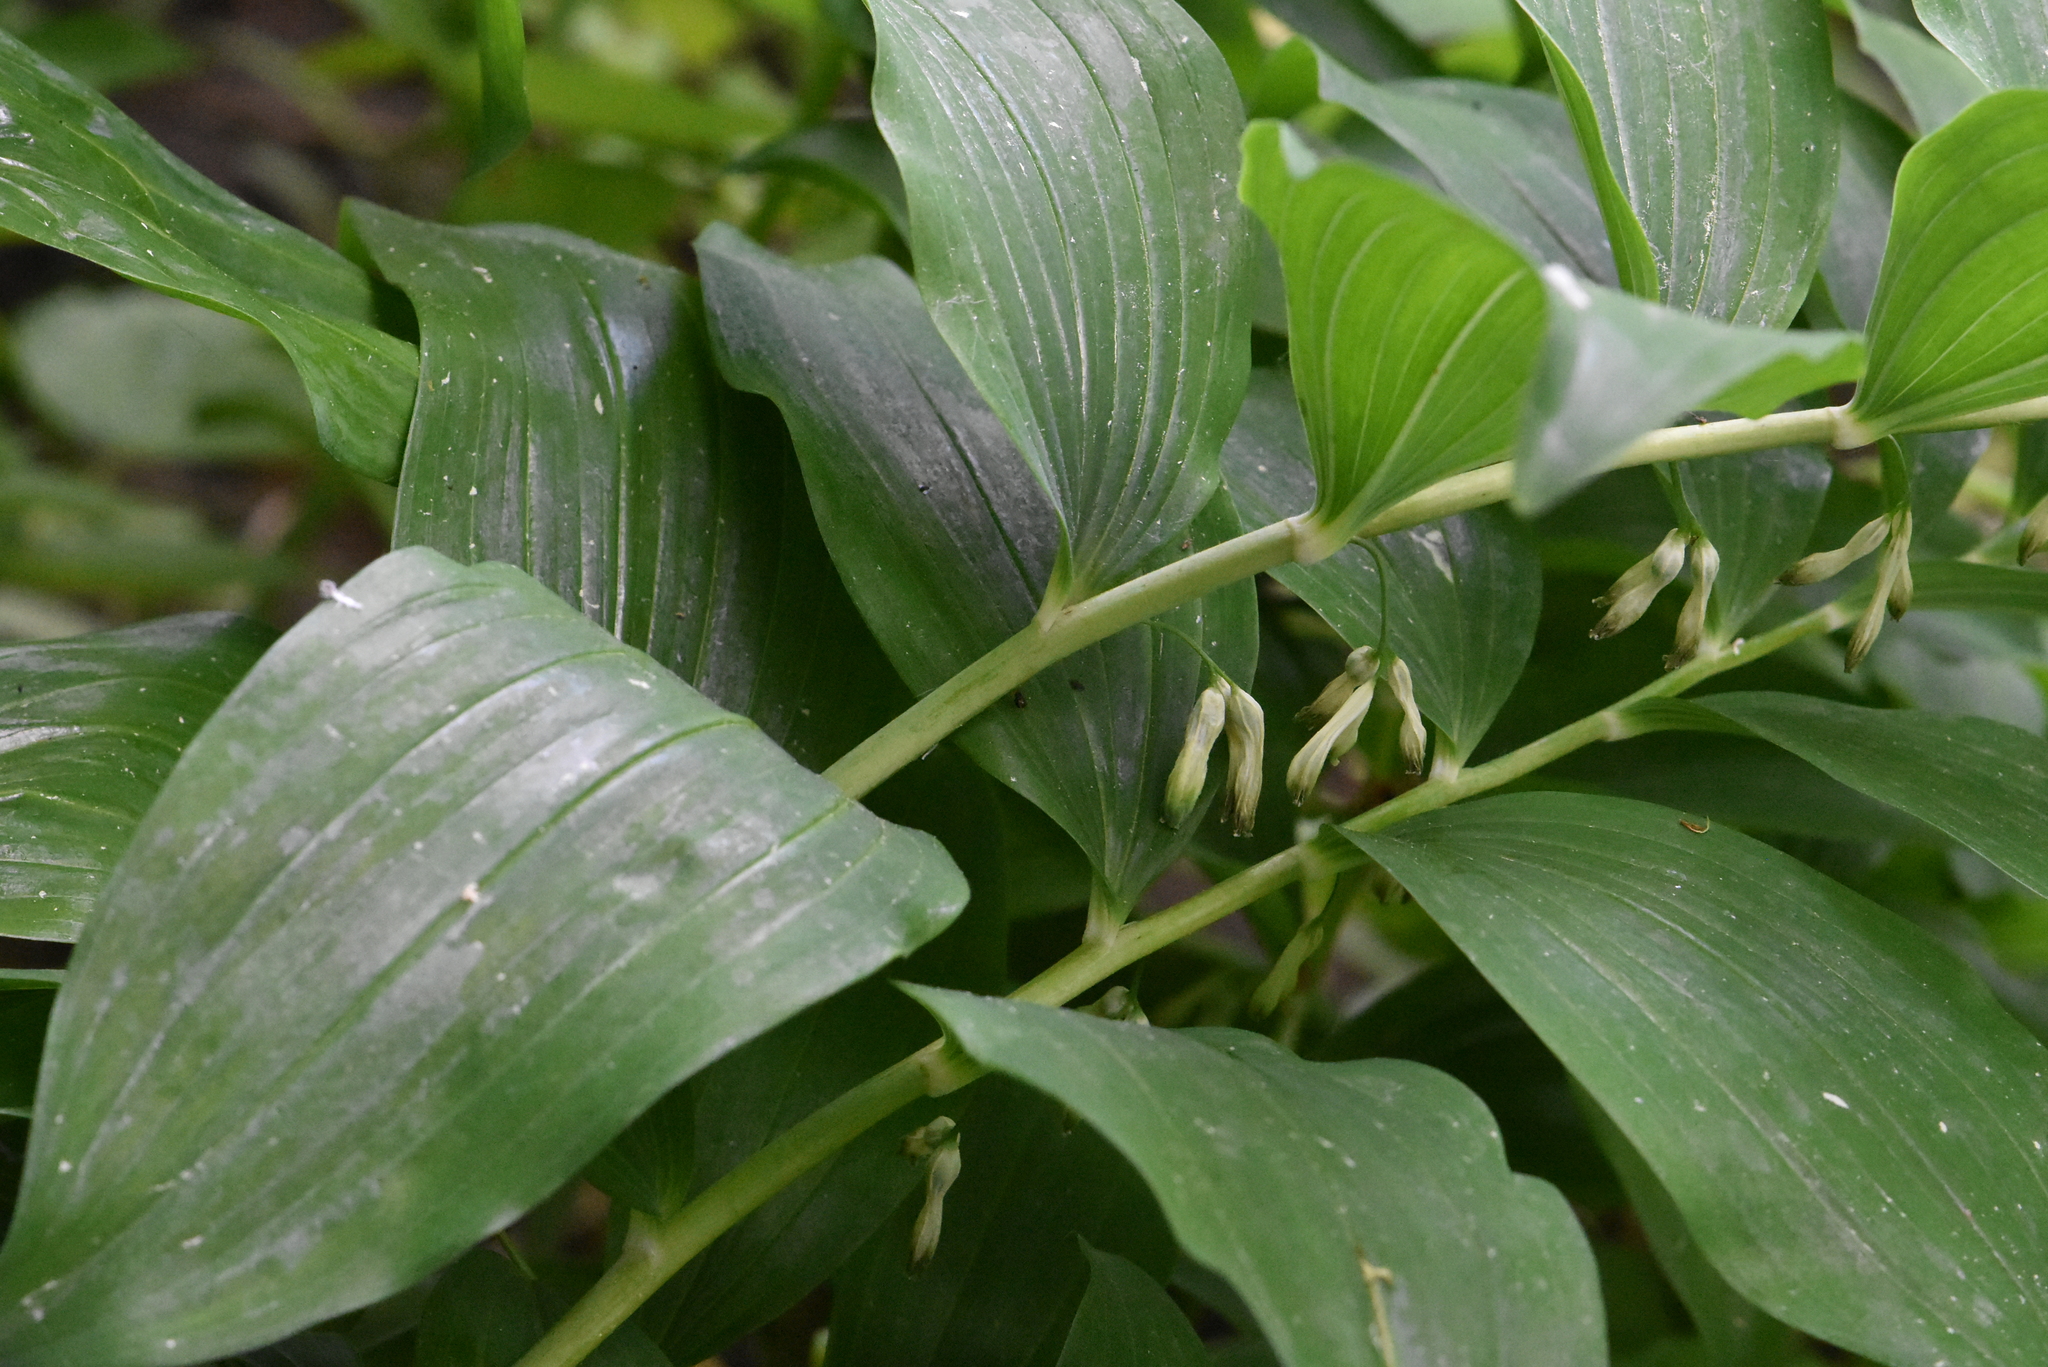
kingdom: Plantae
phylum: Tracheophyta
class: Liliopsida
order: Asparagales
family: Asparagaceae
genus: Polygonatum
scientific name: Polygonatum multiflorum
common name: Solomon's-seal
